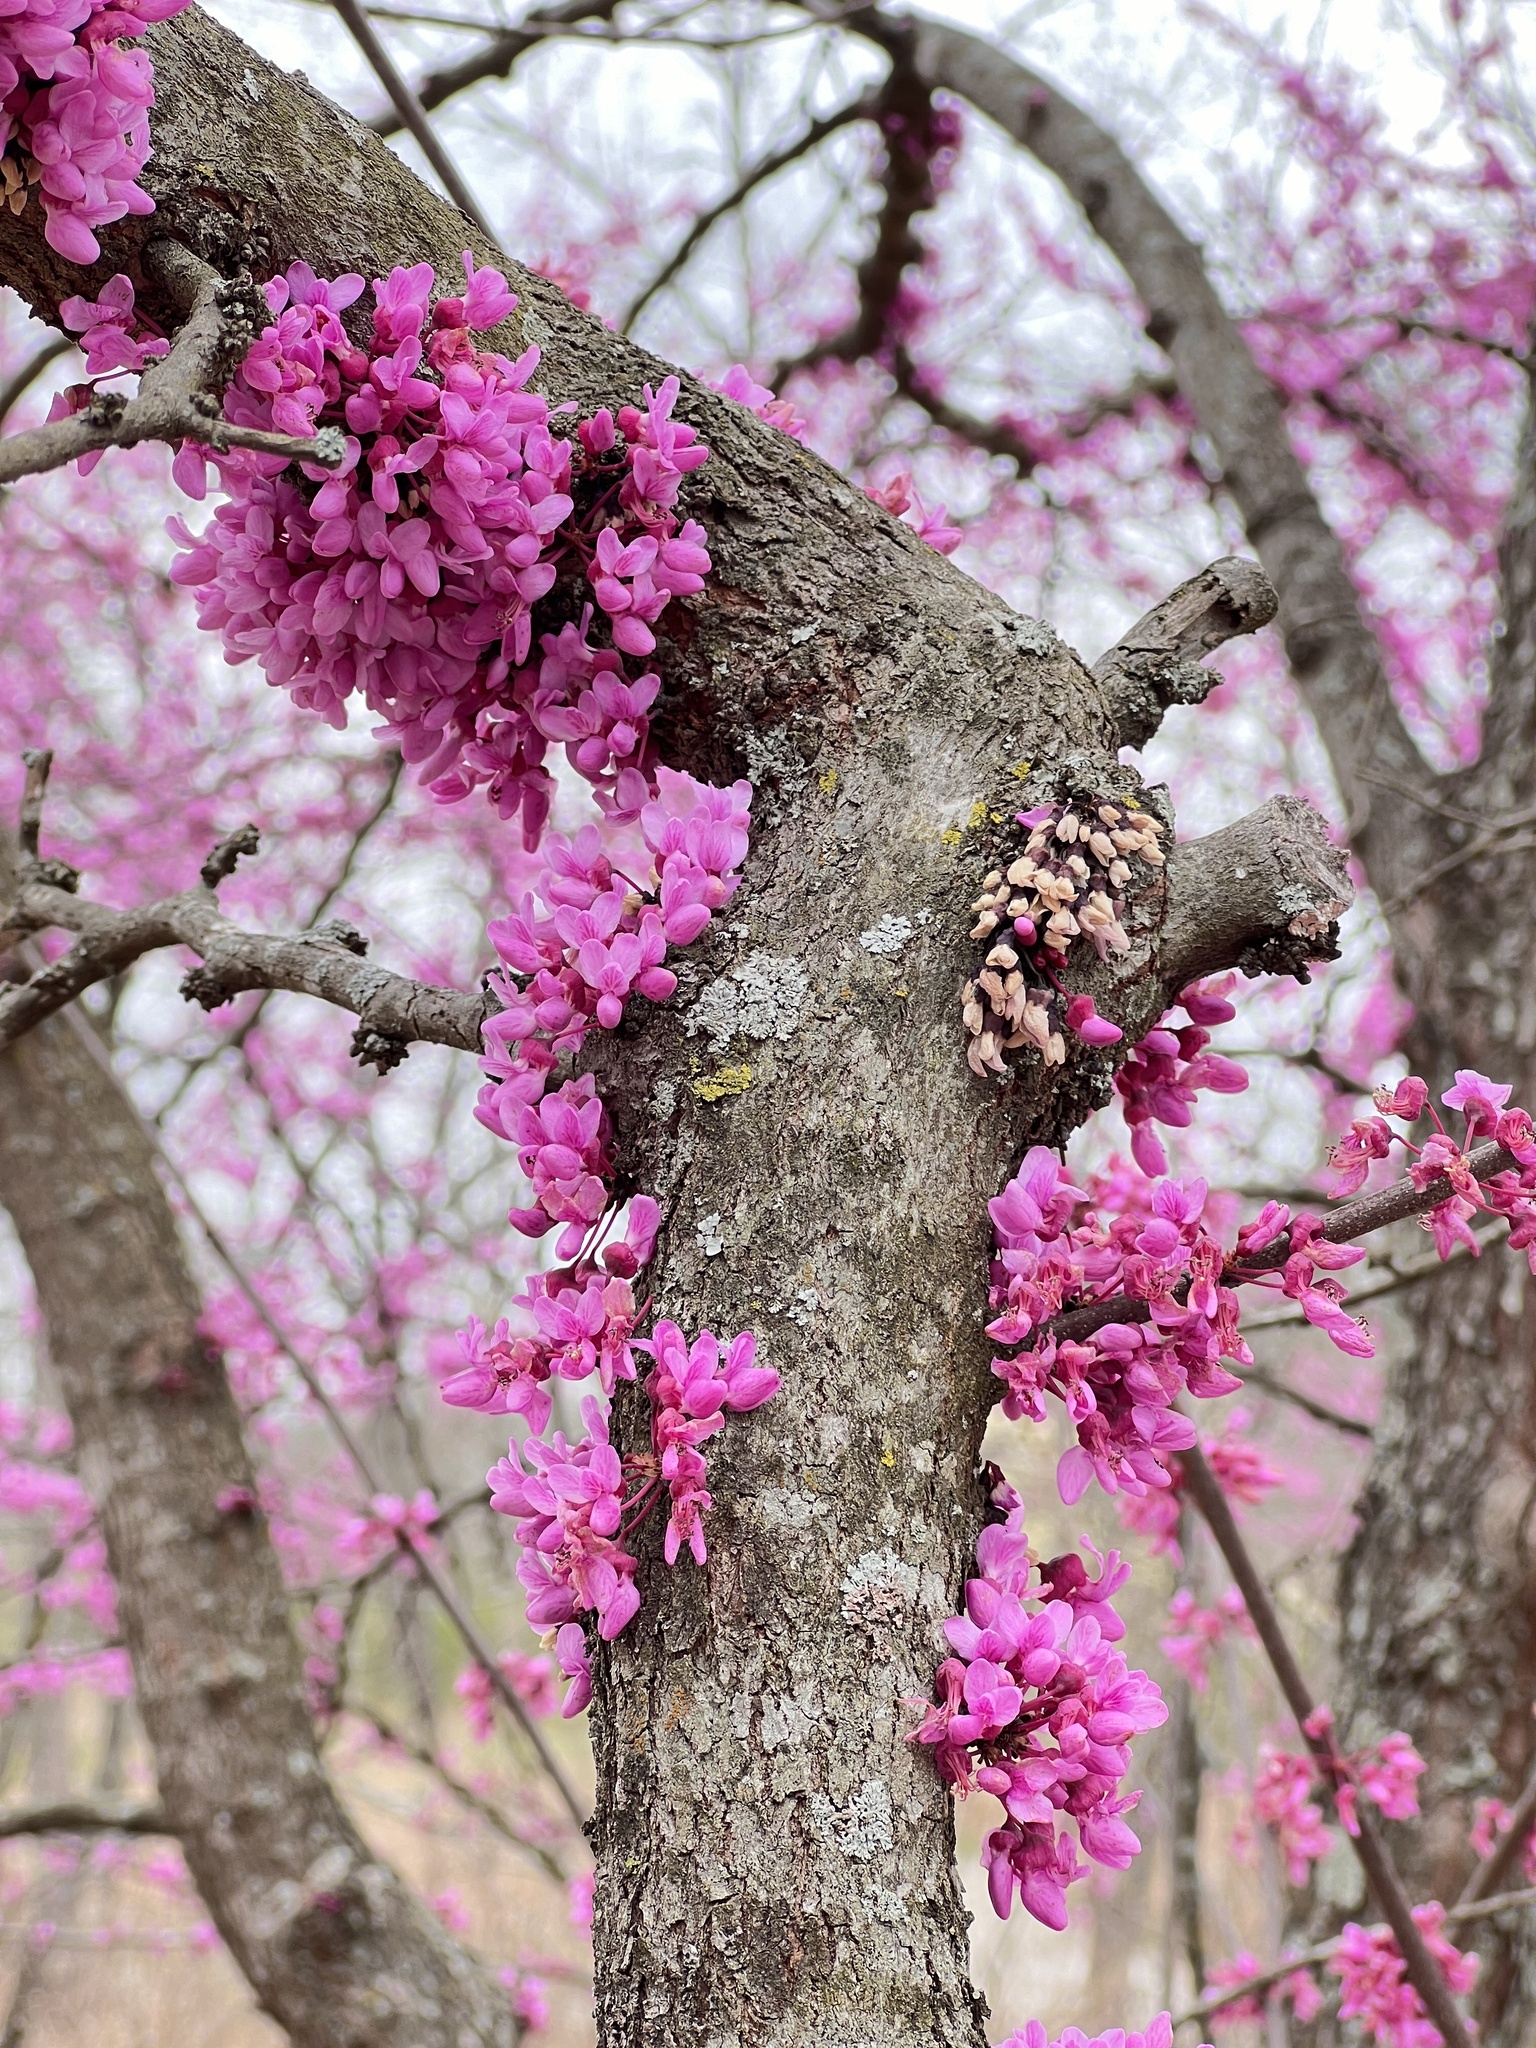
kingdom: Plantae
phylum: Tracheophyta
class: Magnoliopsida
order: Fabales
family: Fabaceae
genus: Cercis
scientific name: Cercis canadensis
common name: Eastern redbud
